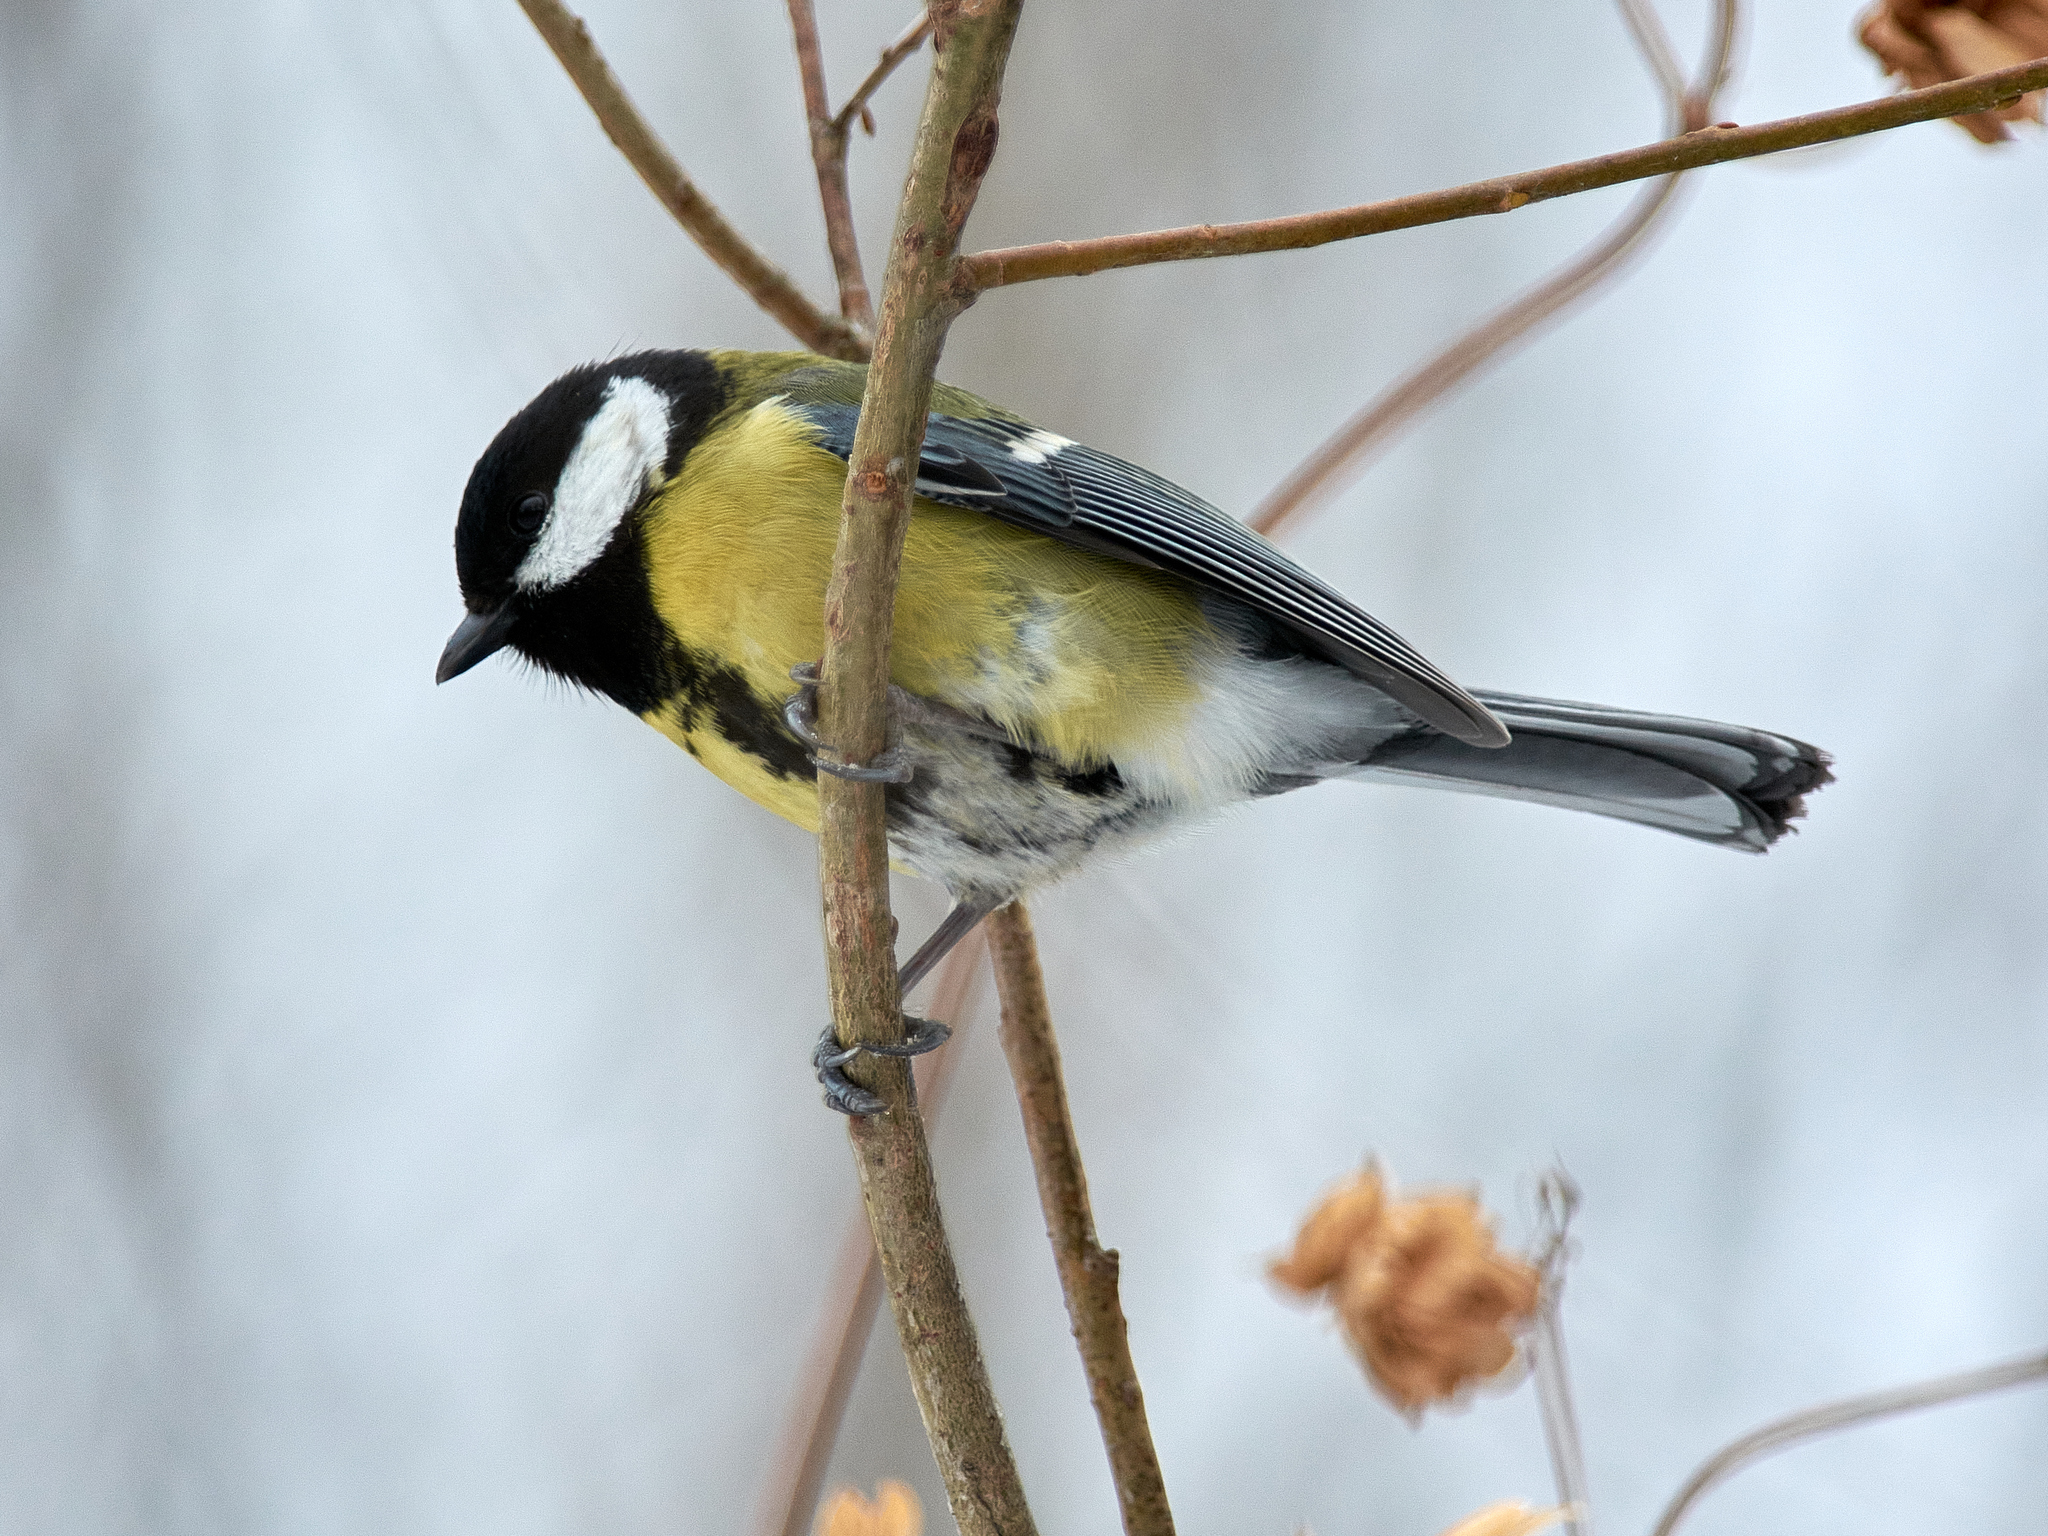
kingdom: Animalia
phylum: Chordata
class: Aves
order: Passeriformes
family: Paridae
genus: Parus
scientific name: Parus major
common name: Great tit
